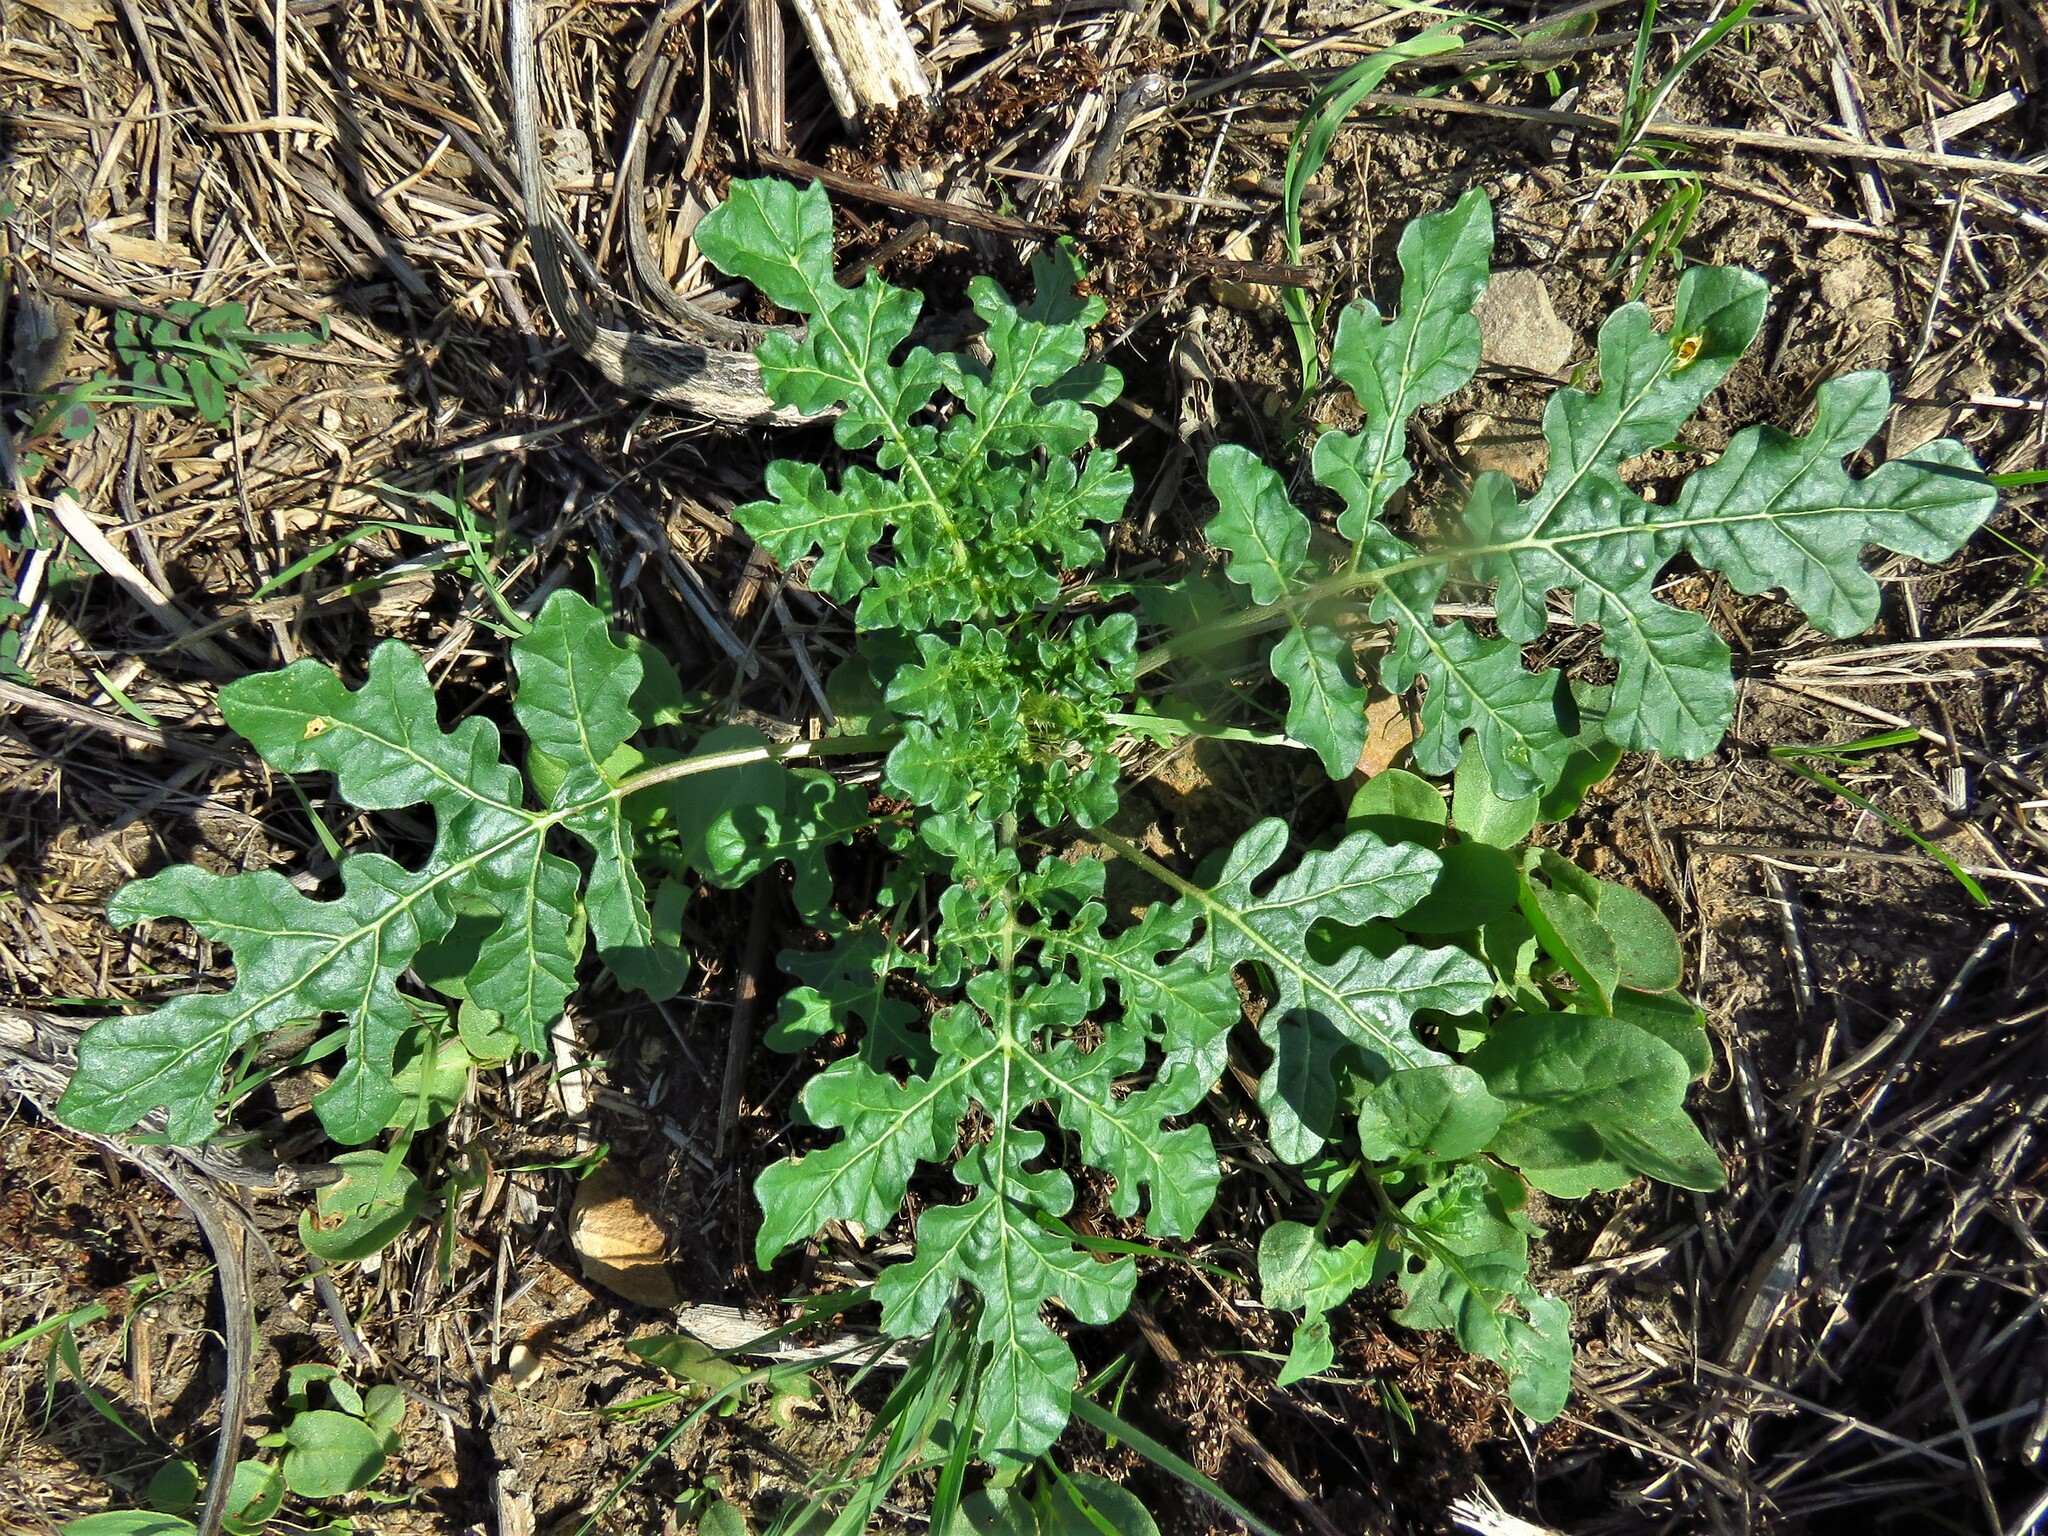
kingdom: Plantae
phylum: Tracheophyta
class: Magnoliopsida
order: Solanales
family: Solanaceae
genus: Solanum
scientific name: Solanum angustifolium
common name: Buffalobur nightshade
